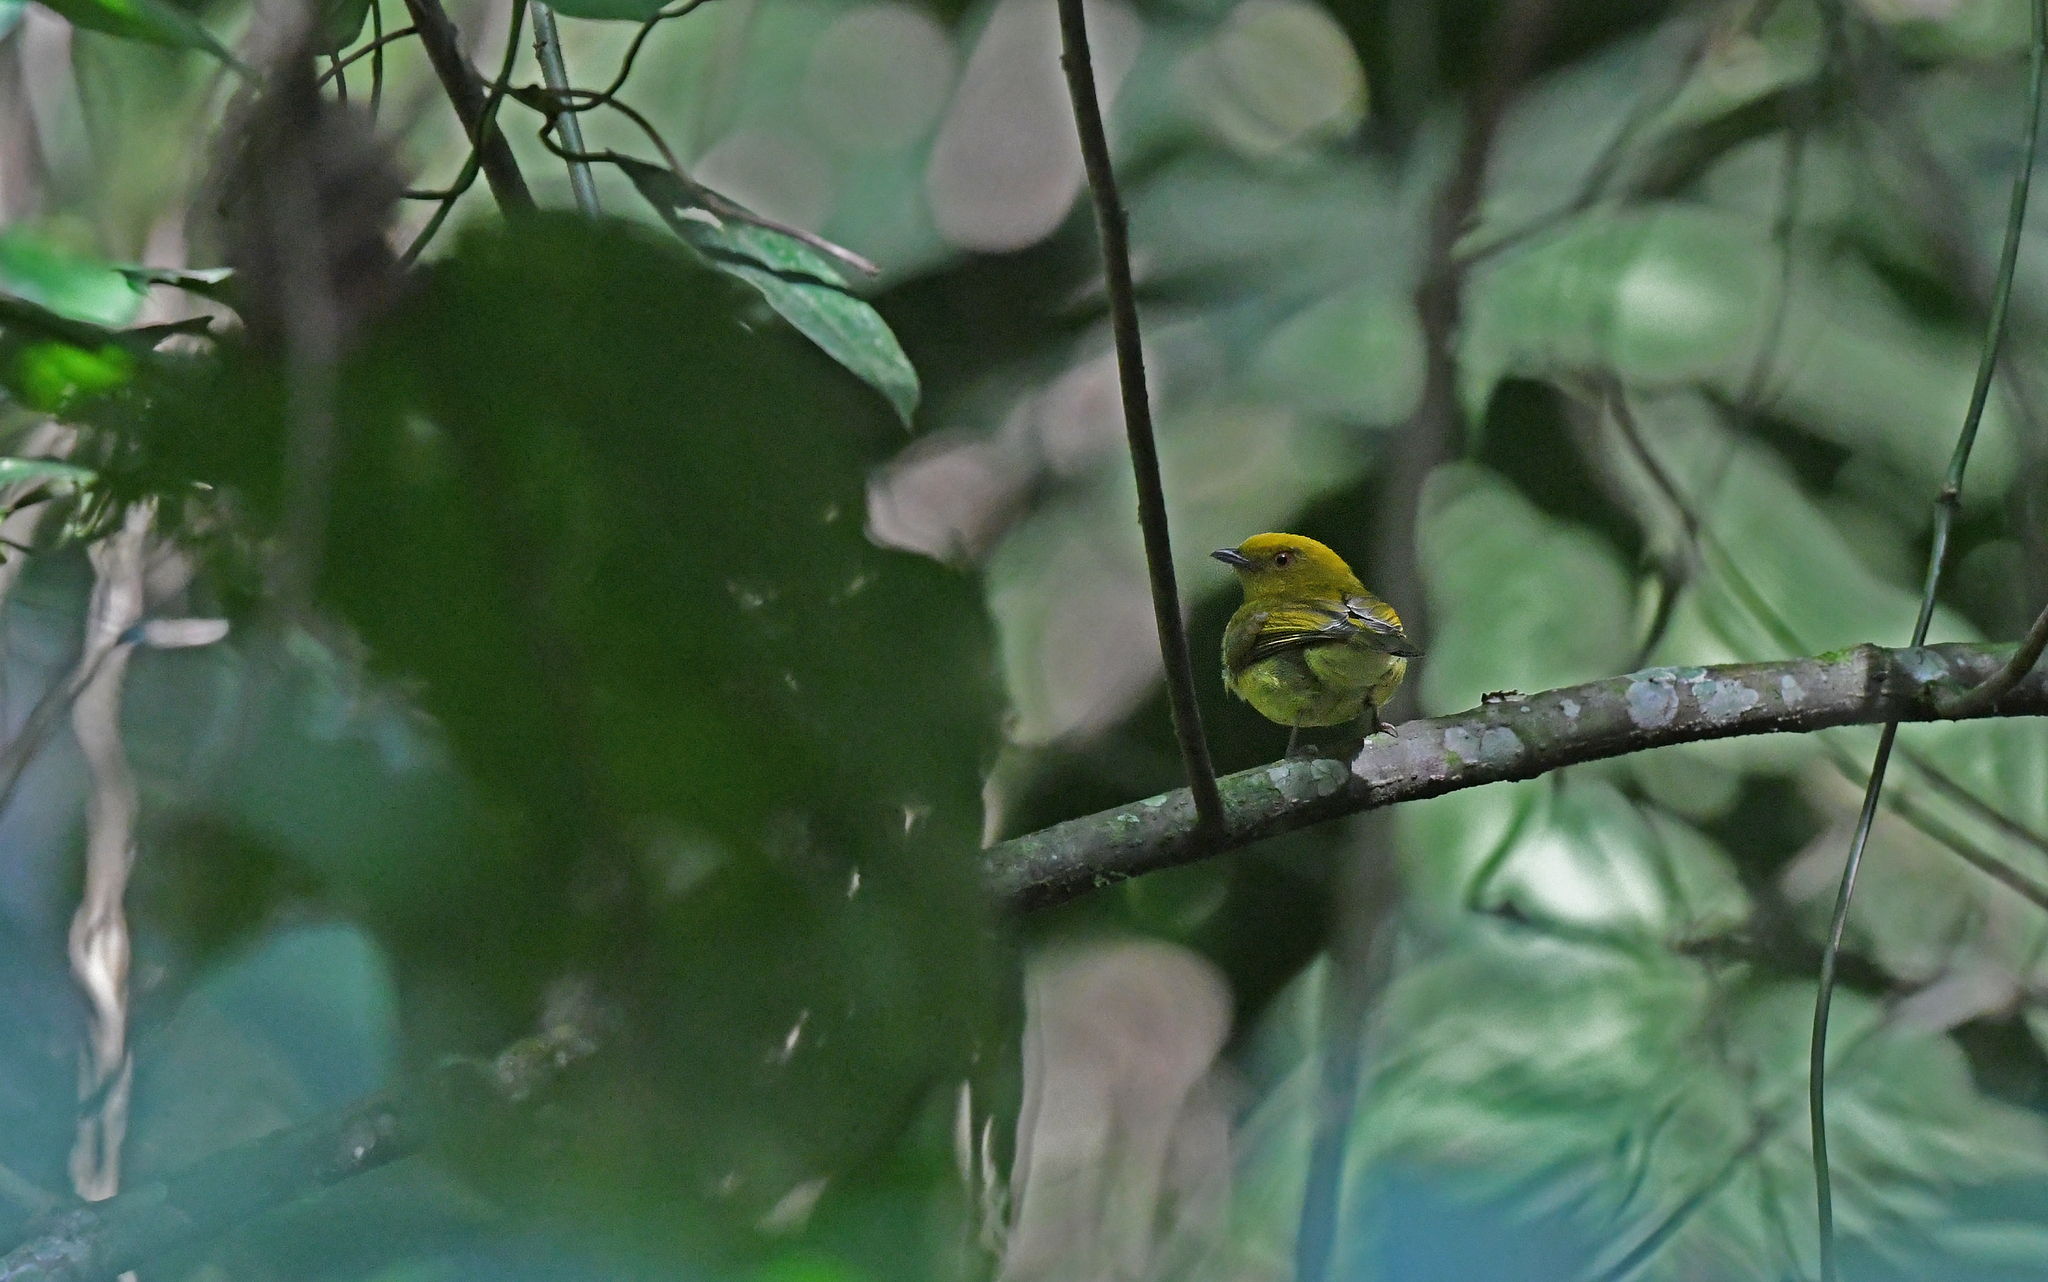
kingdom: Animalia
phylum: Chordata
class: Aves
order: Passeriformes
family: Pipridae
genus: Xenopipo
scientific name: Xenopipo flavicapilla
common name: Yellow-headed manakin
